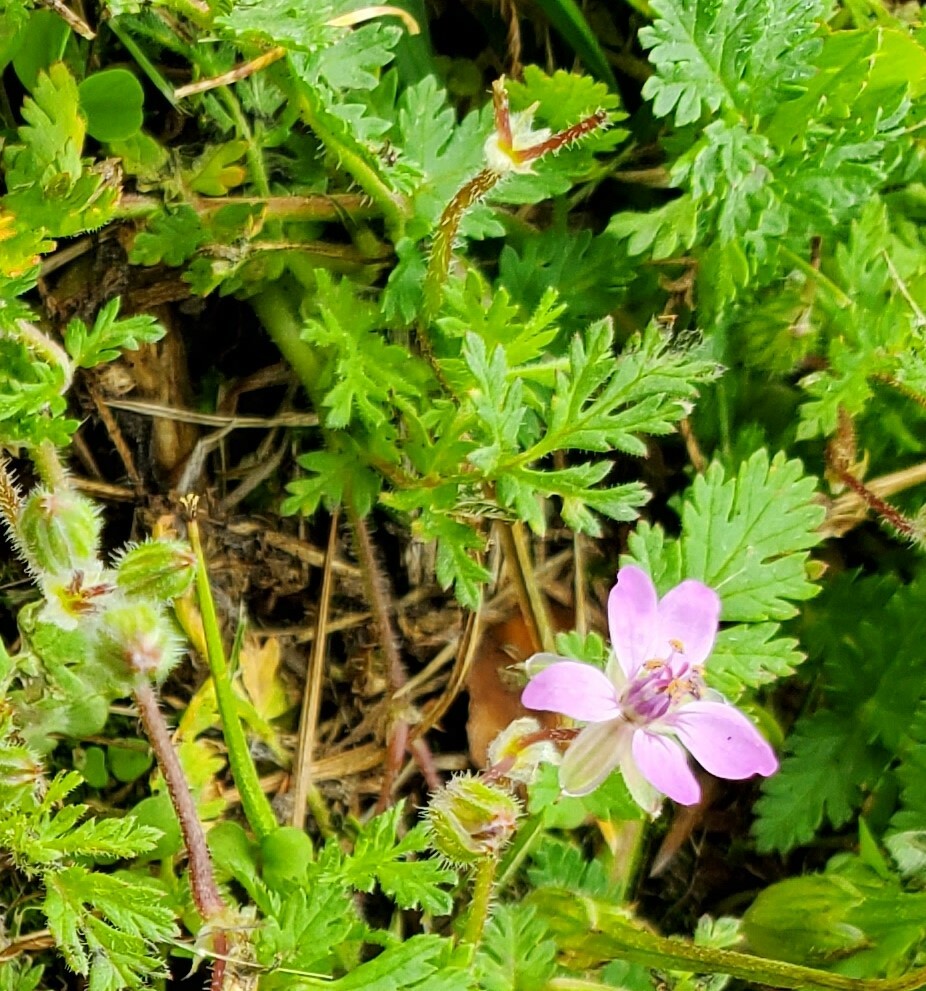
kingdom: Plantae
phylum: Tracheophyta
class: Magnoliopsida
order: Geraniales
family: Geraniaceae
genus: Erodium
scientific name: Erodium cicutarium
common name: Common stork's-bill
